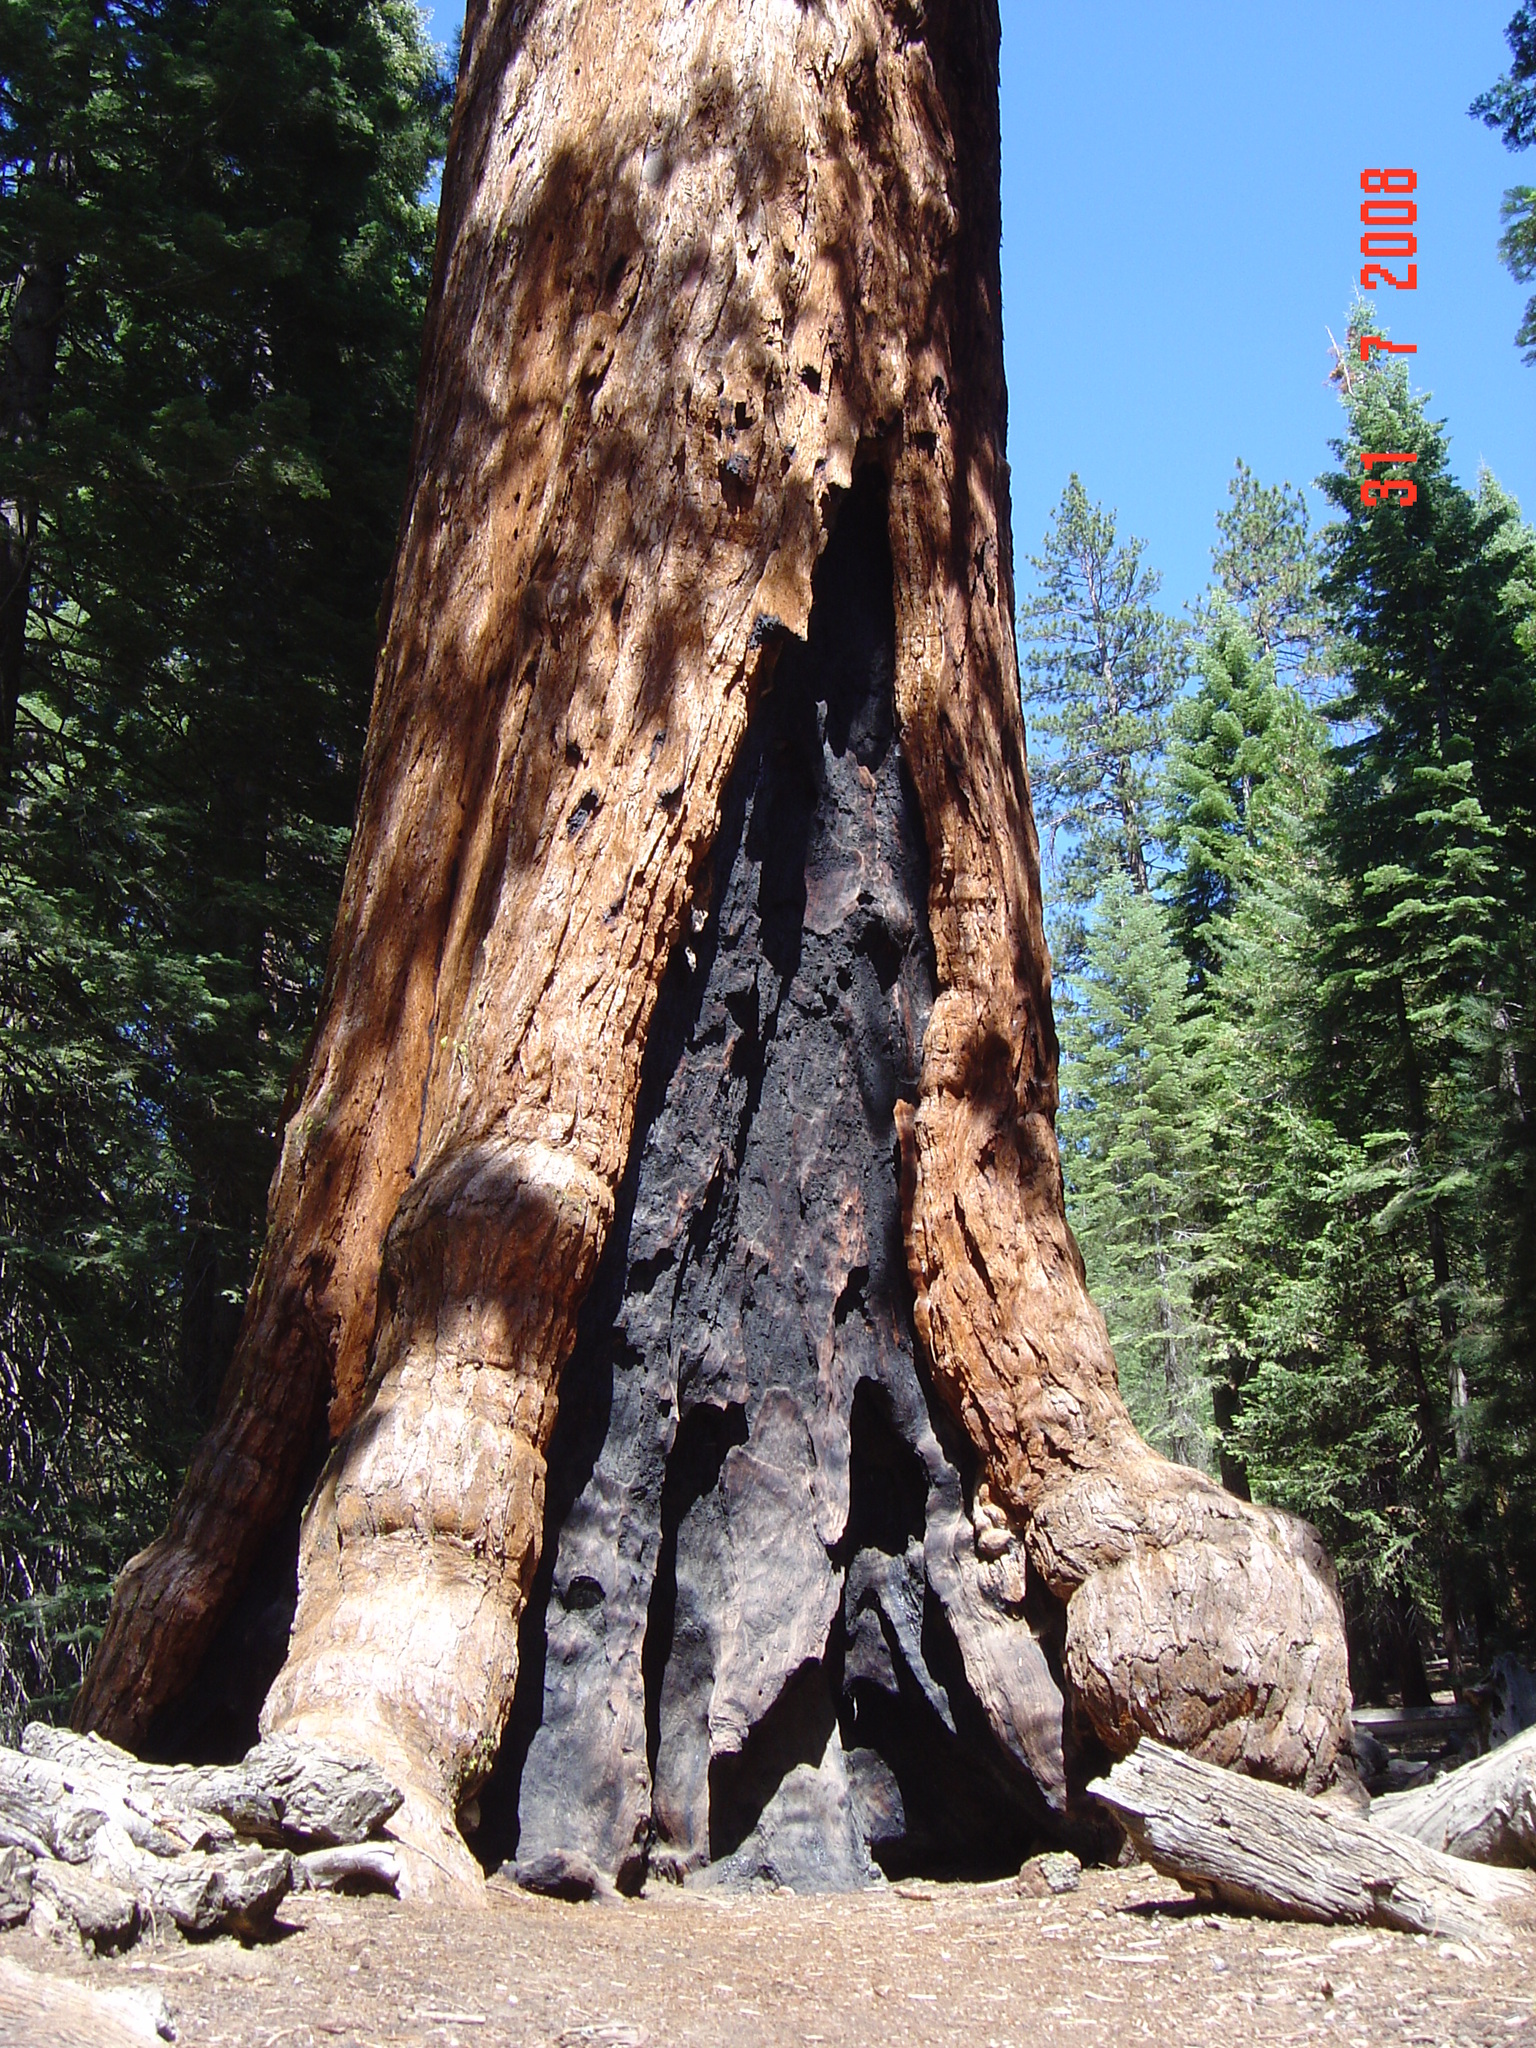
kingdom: Plantae
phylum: Tracheophyta
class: Pinopsida
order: Pinales
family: Cupressaceae
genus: Sequoiadendron
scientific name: Sequoiadendron giganteum
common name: Wellingtonia
